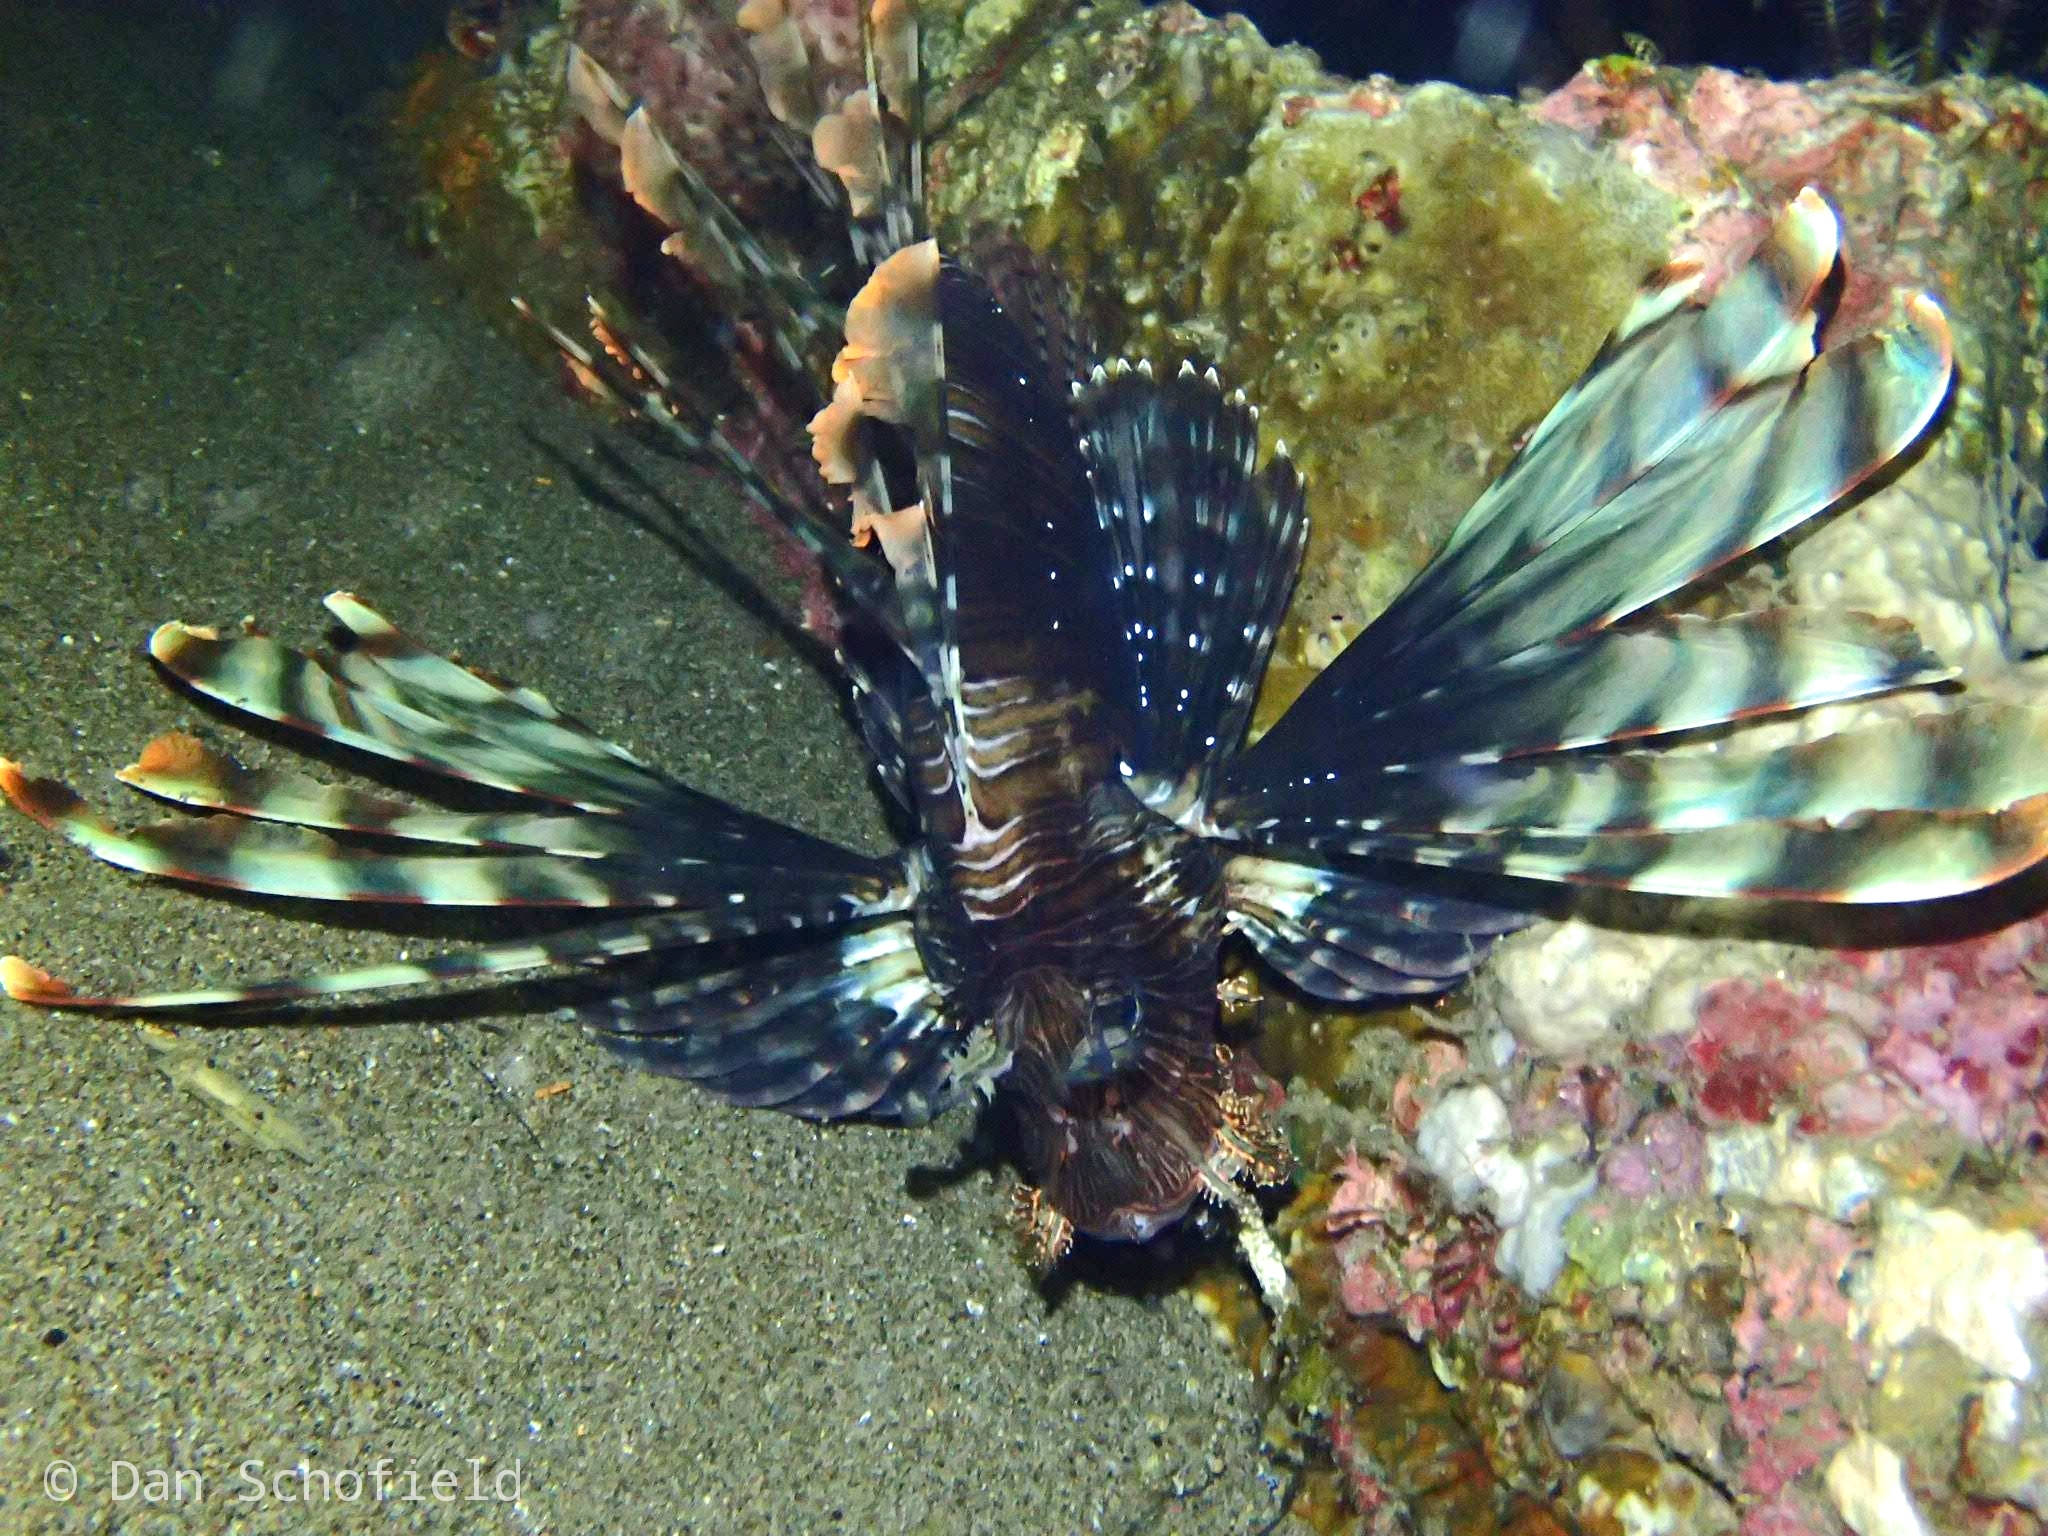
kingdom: Animalia
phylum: Chordata
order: Scorpaeniformes
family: Scorpaenidae
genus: Pterois
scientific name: Pterois volitans
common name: Lionfish
